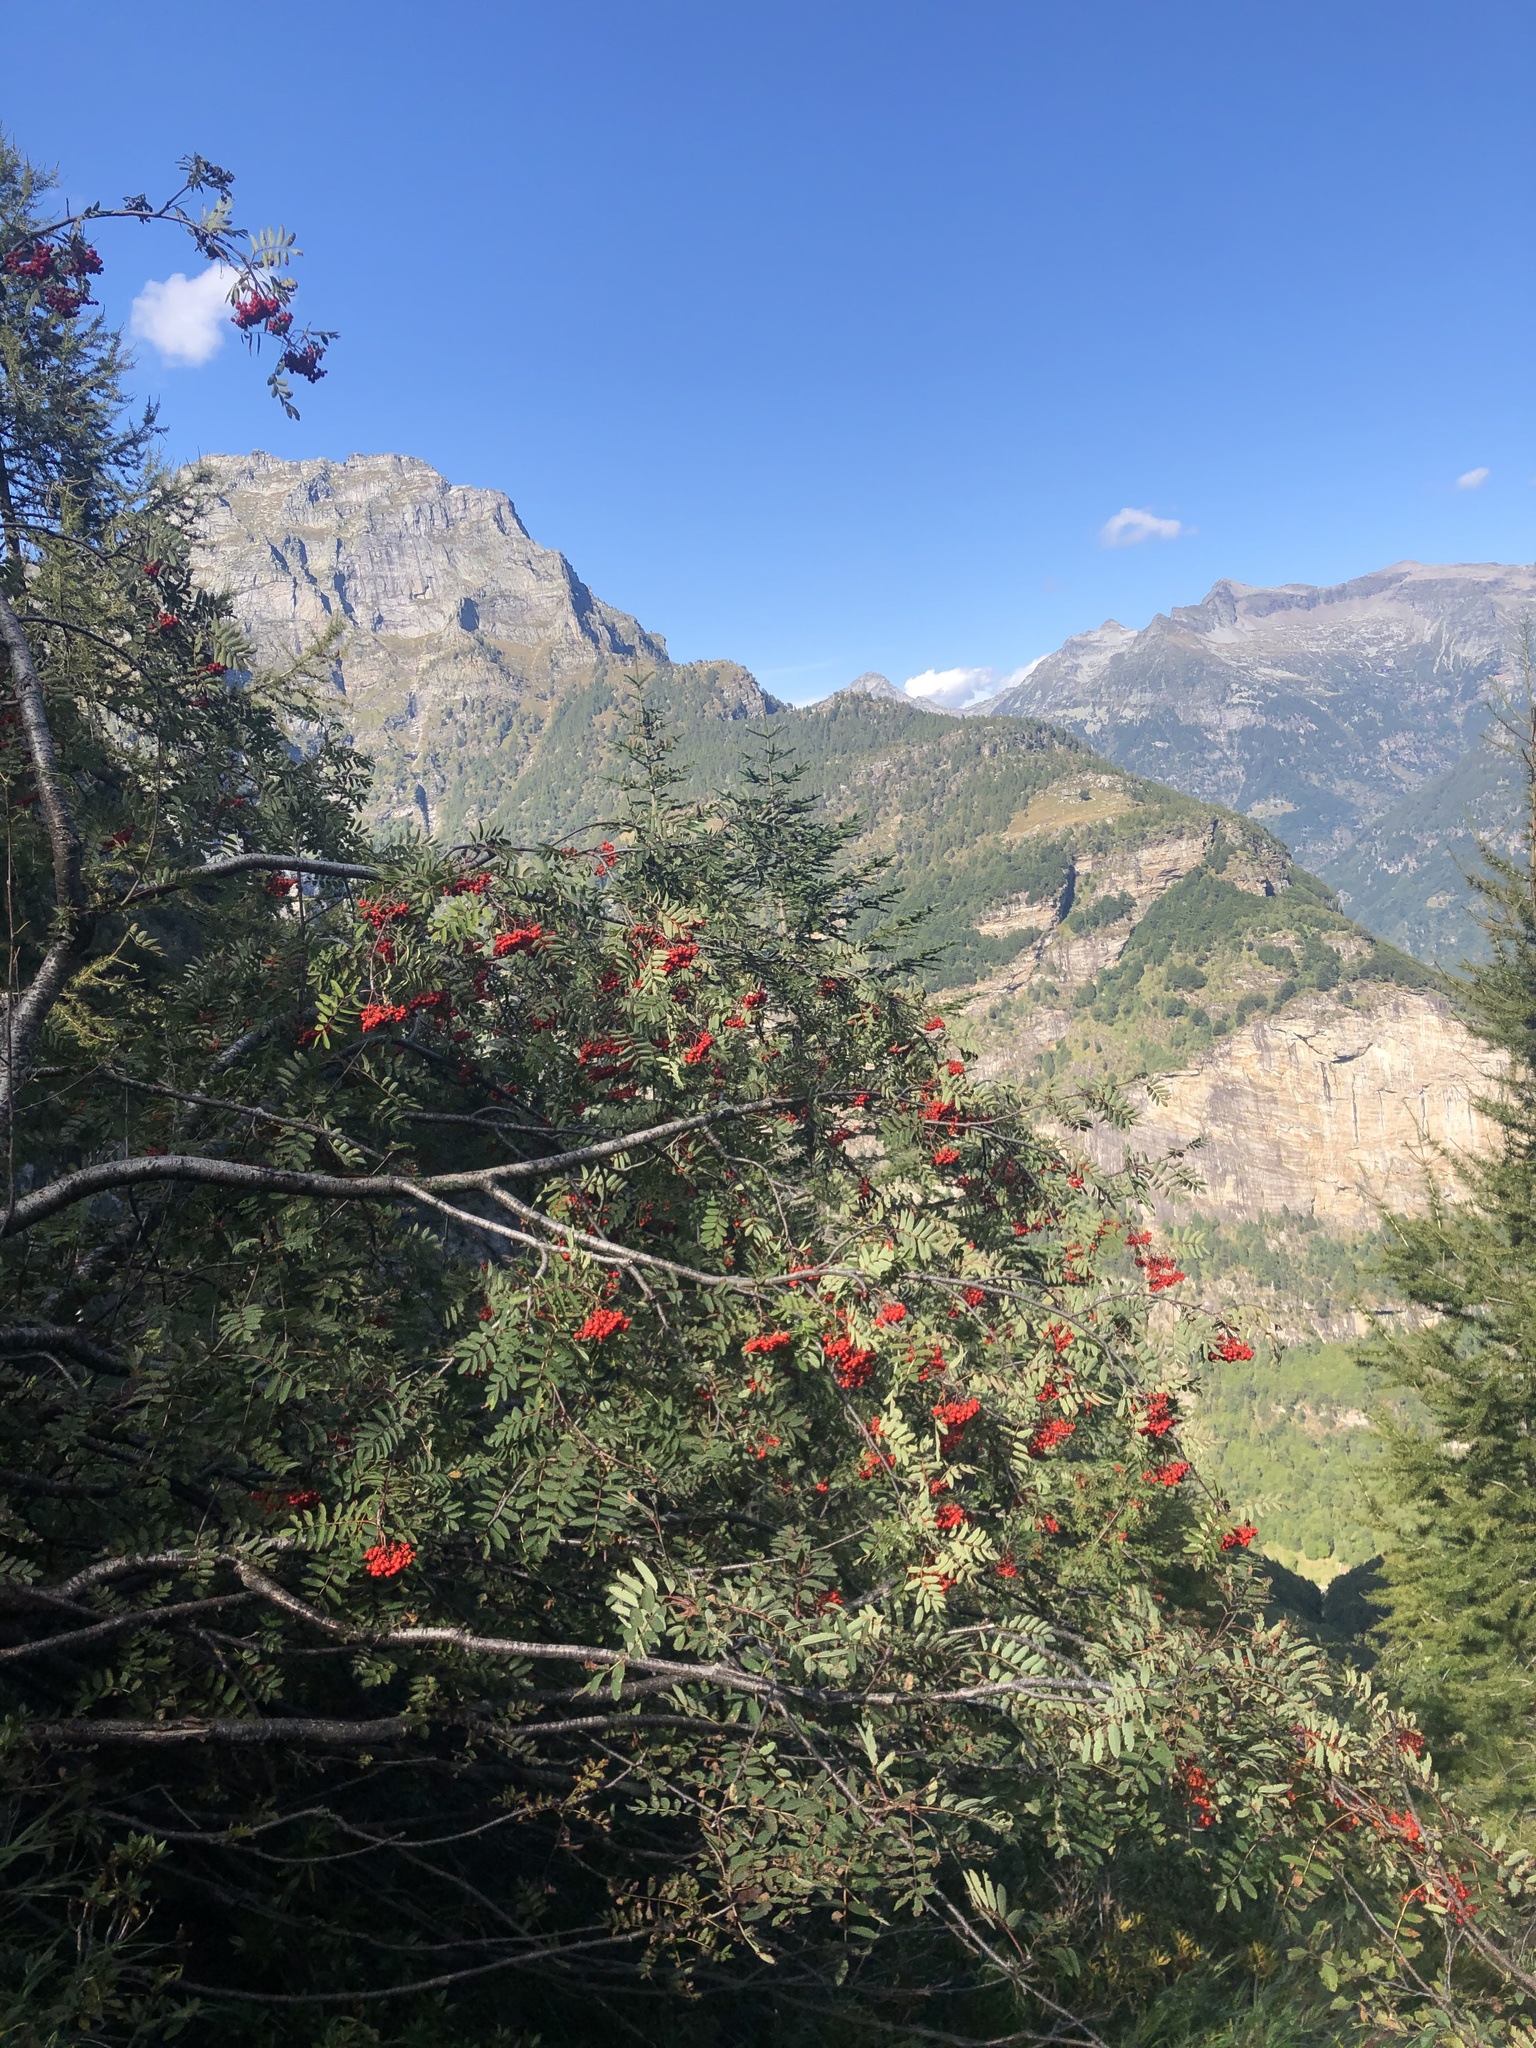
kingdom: Plantae
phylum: Tracheophyta
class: Magnoliopsida
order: Rosales
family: Rosaceae
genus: Sorbus
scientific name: Sorbus aucuparia
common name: Rowan
